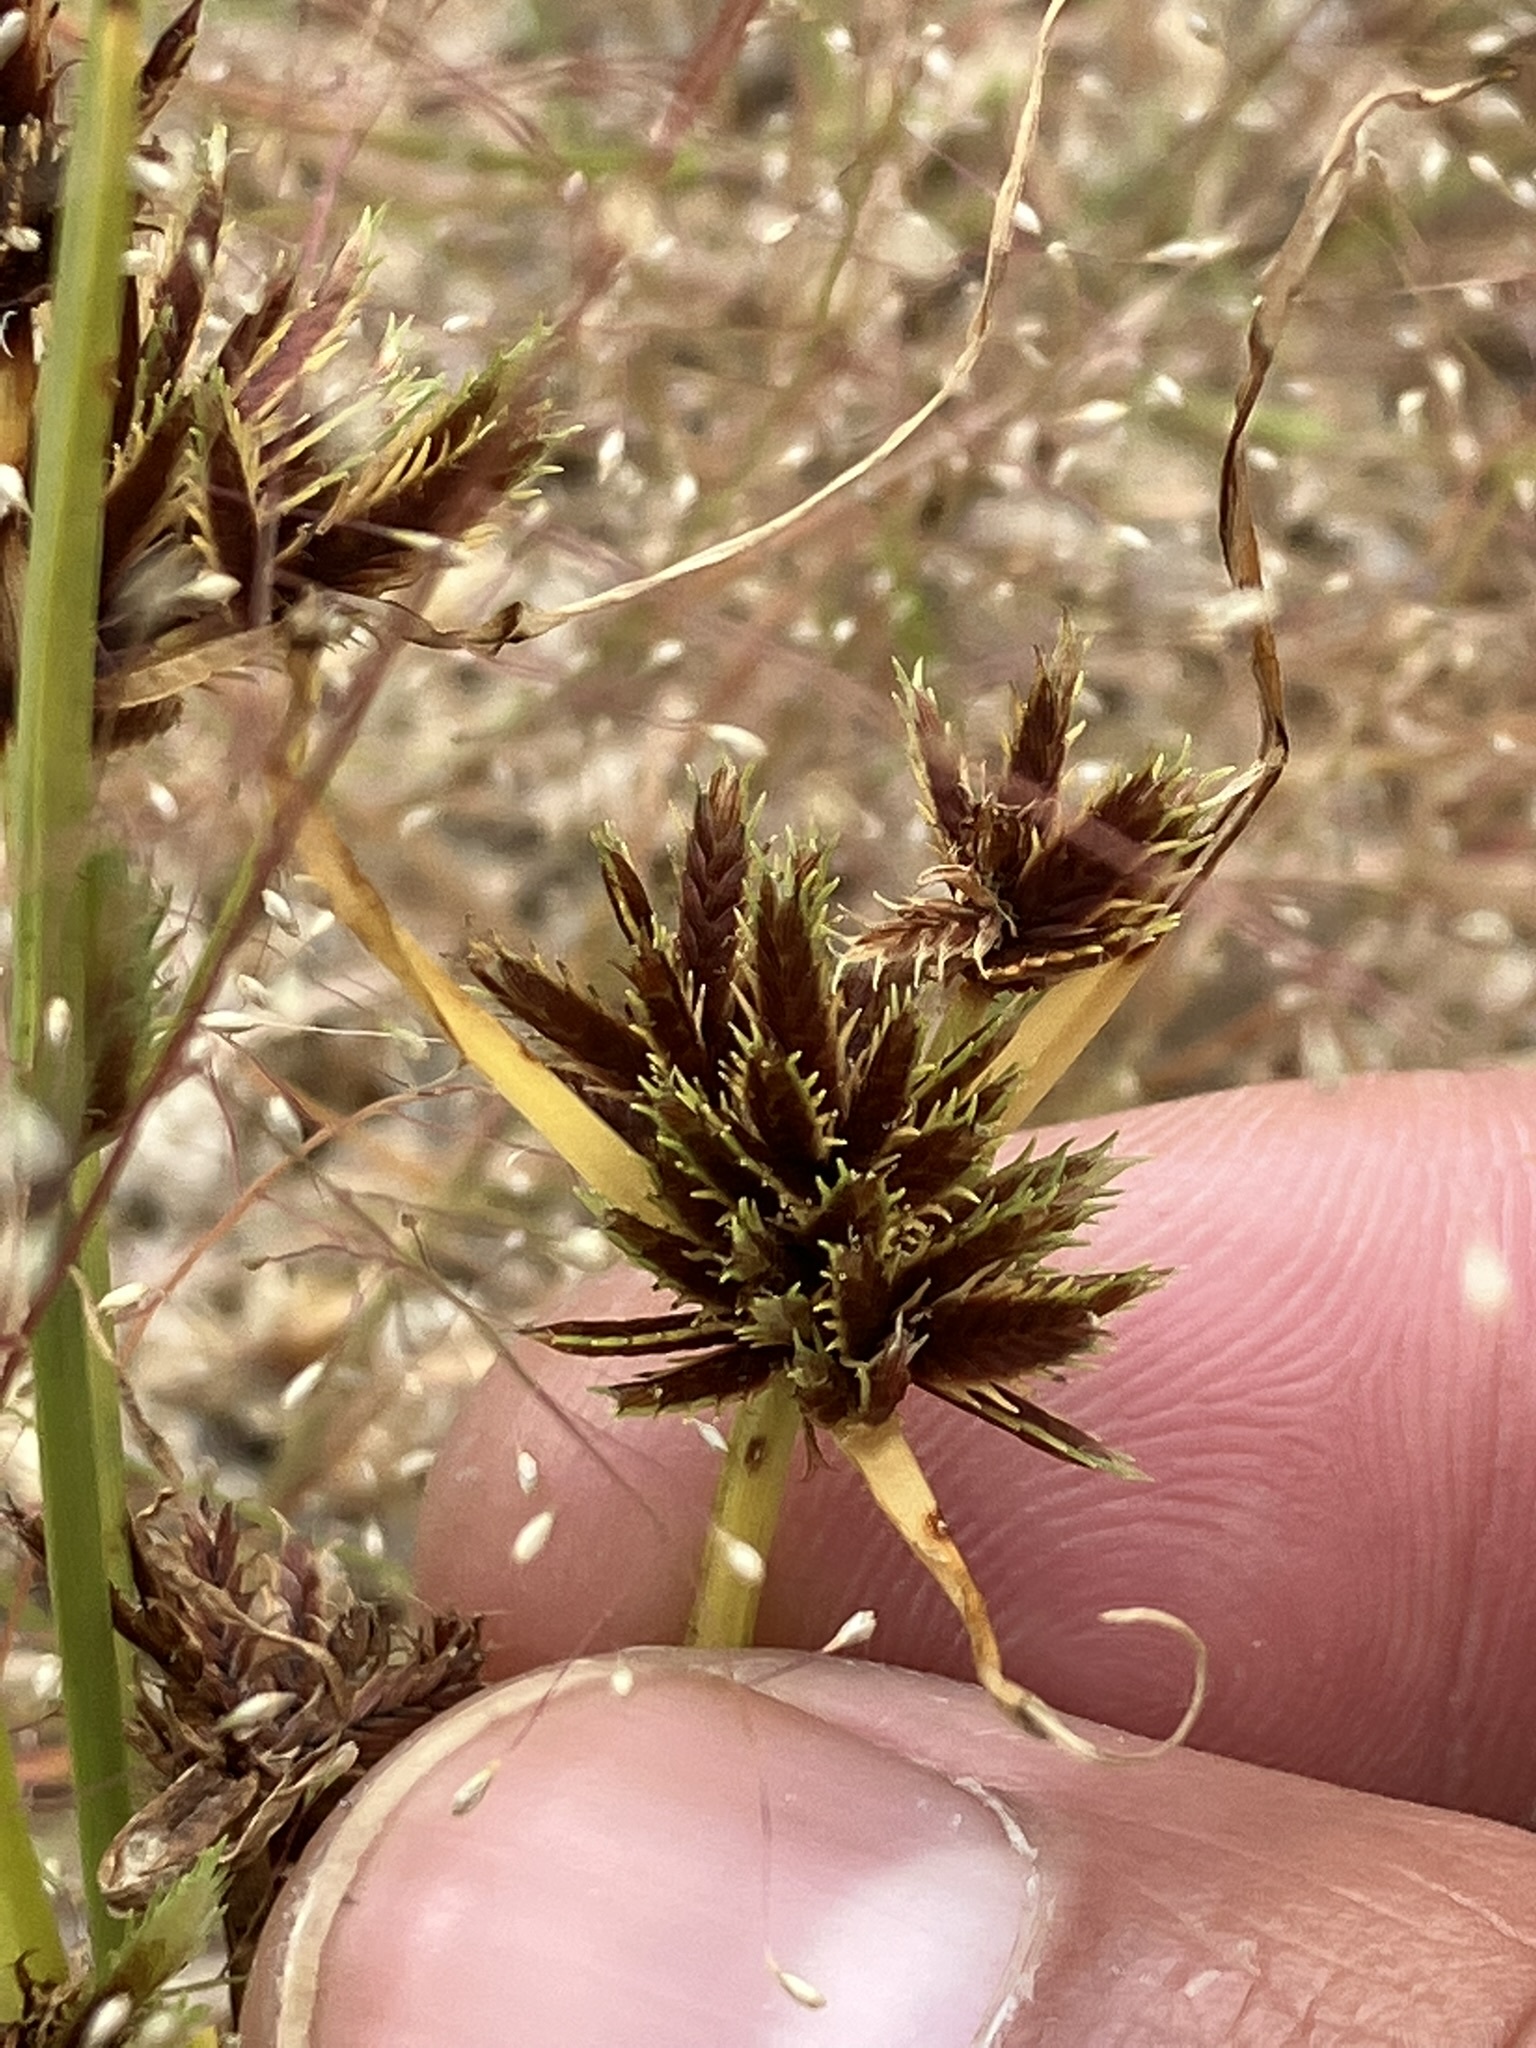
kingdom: Plantae
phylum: Tracheophyta
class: Liliopsida
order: Poales
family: Cyperaceae
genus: Cyperus
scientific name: Cyperus squarrosus
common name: Awned cyperus
